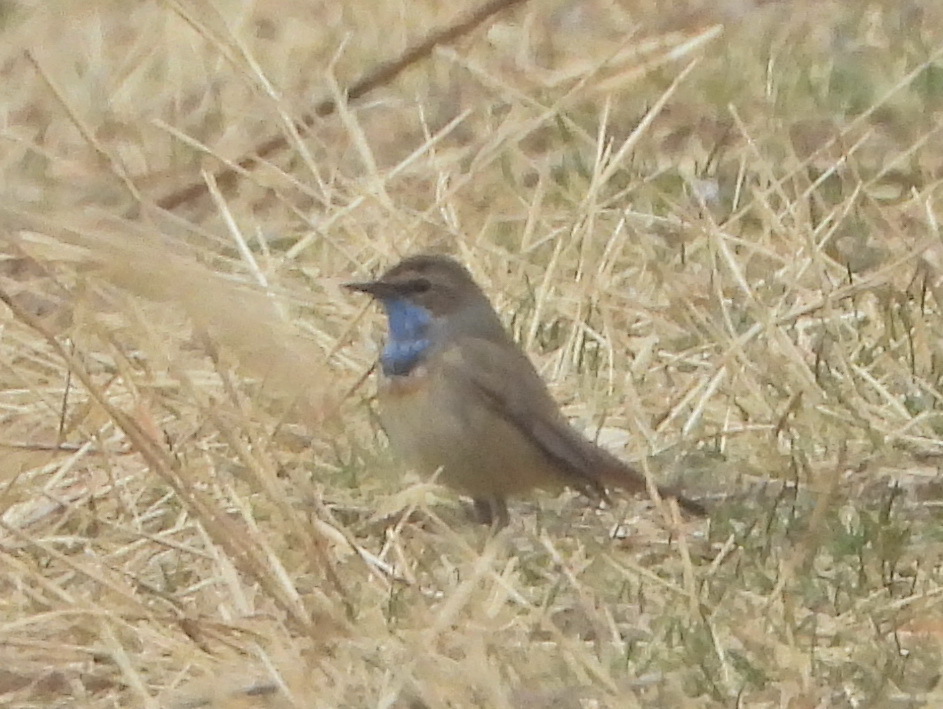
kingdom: Animalia
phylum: Chordata
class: Aves
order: Passeriformes
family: Muscicapidae
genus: Luscinia
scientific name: Luscinia svecica
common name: Bluethroat
